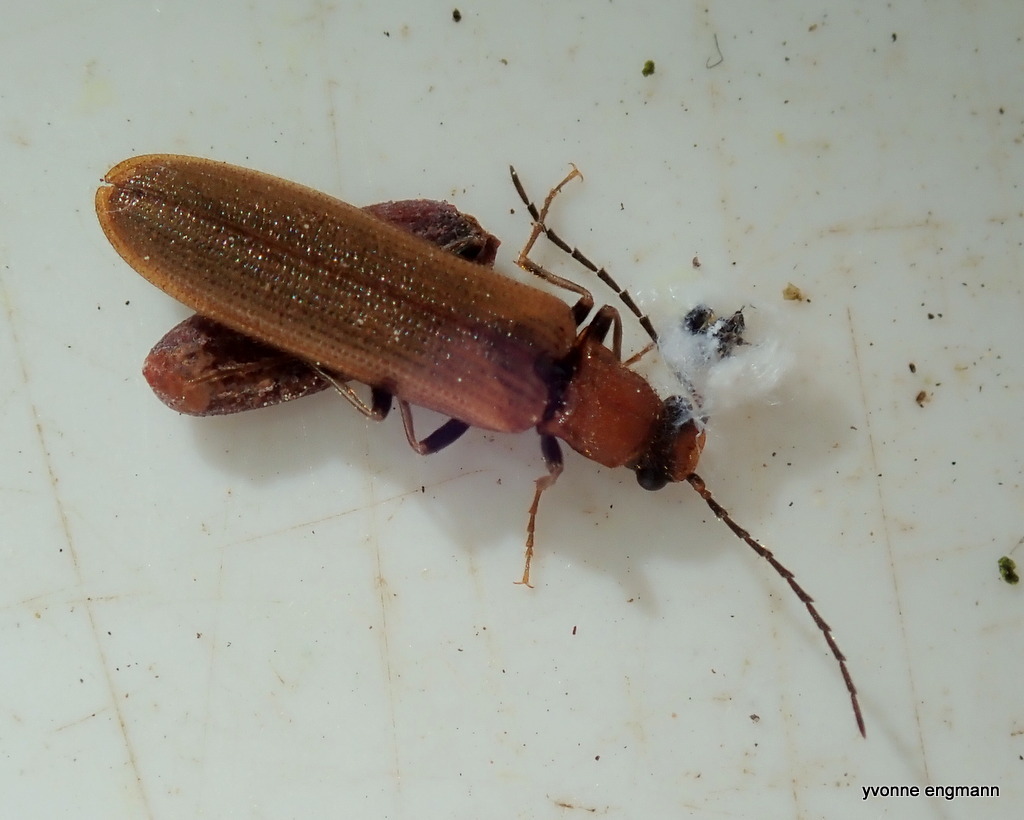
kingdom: Animalia
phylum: Arthropoda
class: Insecta
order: Coleoptera
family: Elateridae
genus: Denticollis
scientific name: Denticollis linearis
